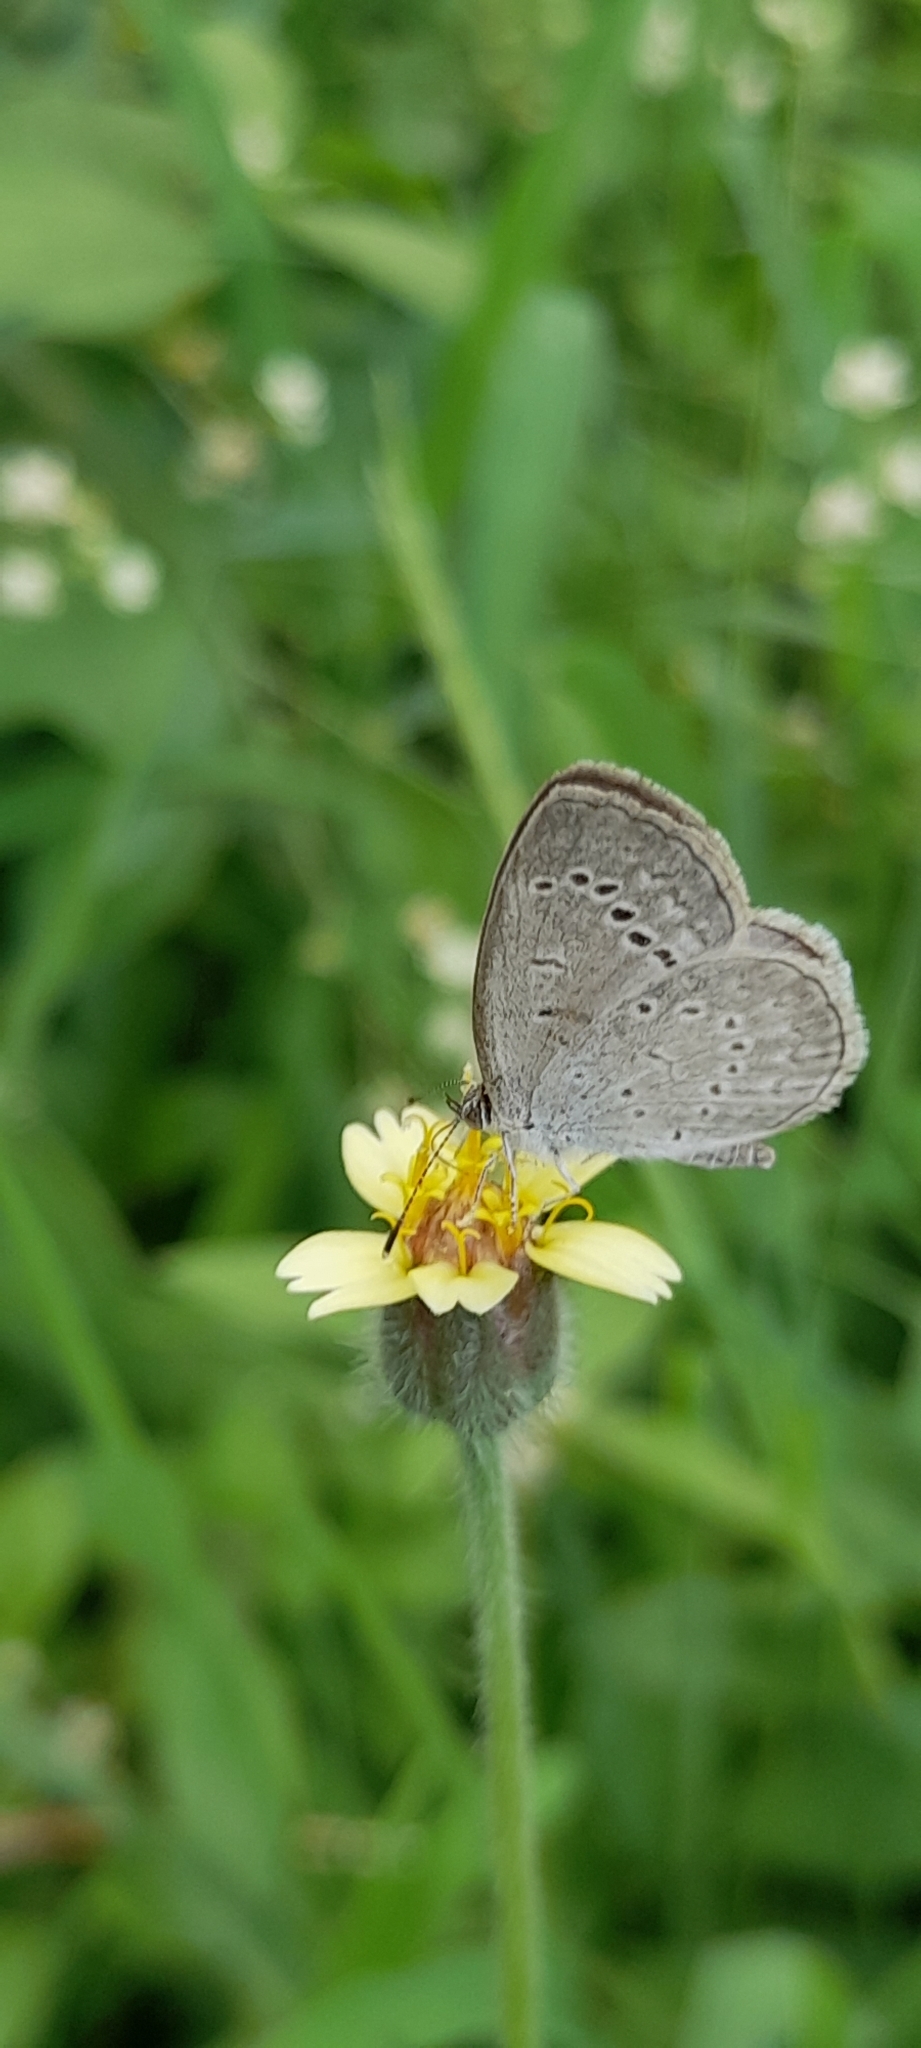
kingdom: Animalia
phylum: Arthropoda
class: Insecta
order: Lepidoptera
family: Lycaenidae
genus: Pseudozizeeria
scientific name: Pseudozizeeria maha
